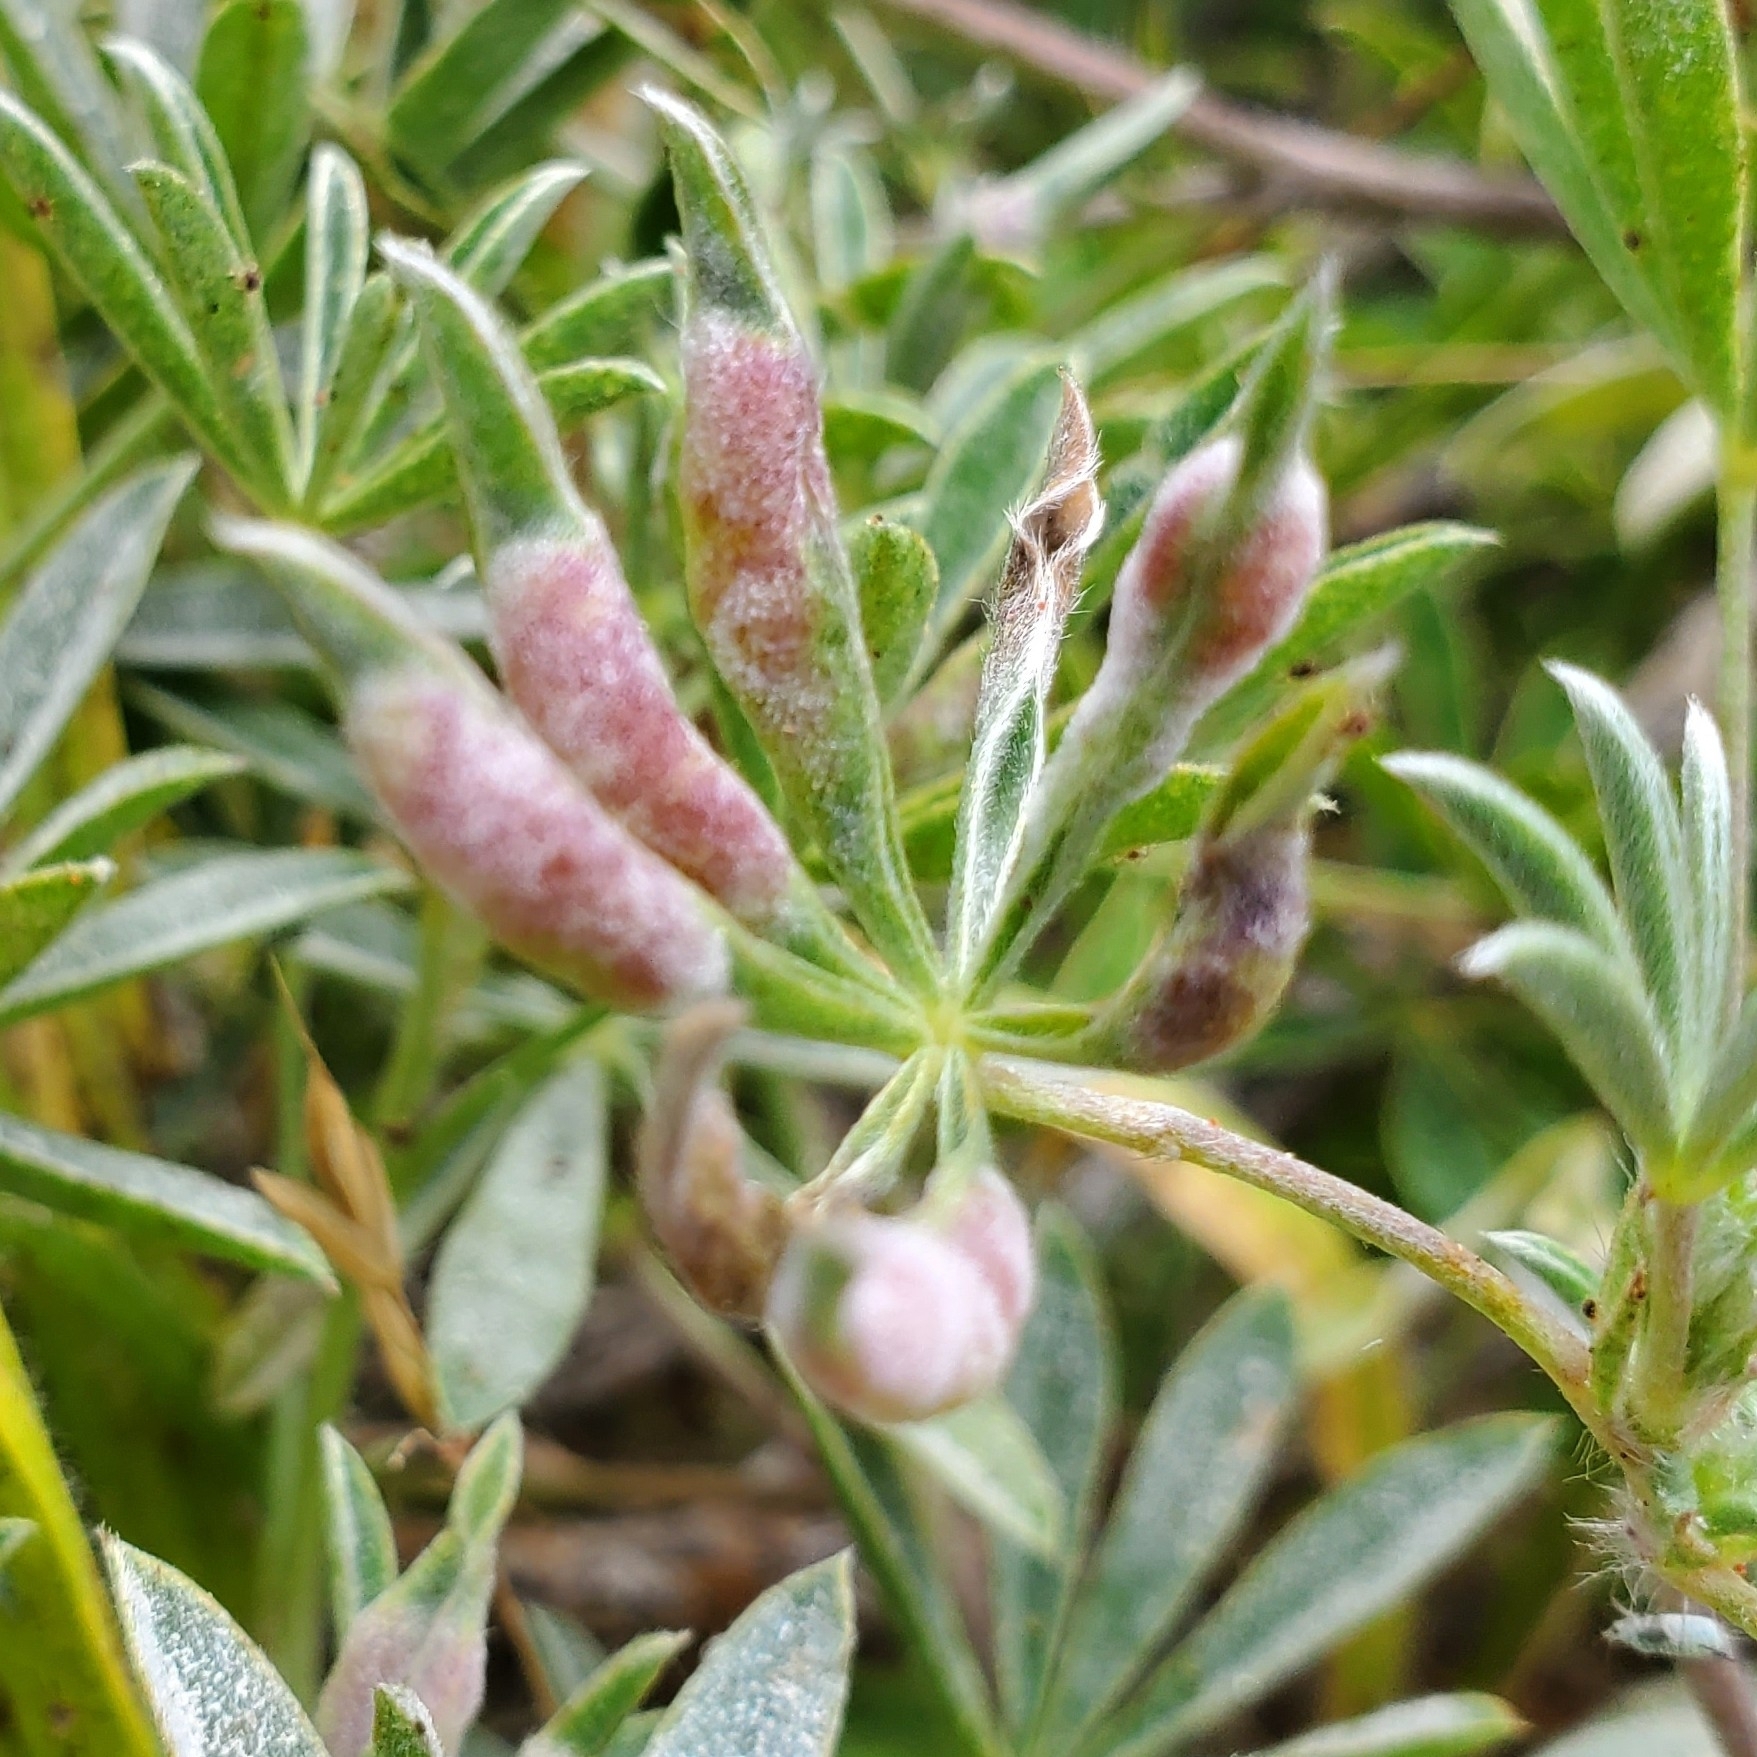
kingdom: Animalia
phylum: Arthropoda
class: Insecta
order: Diptera
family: Cecidomyiidae
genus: Dasineura
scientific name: Dasineura lupinorum
